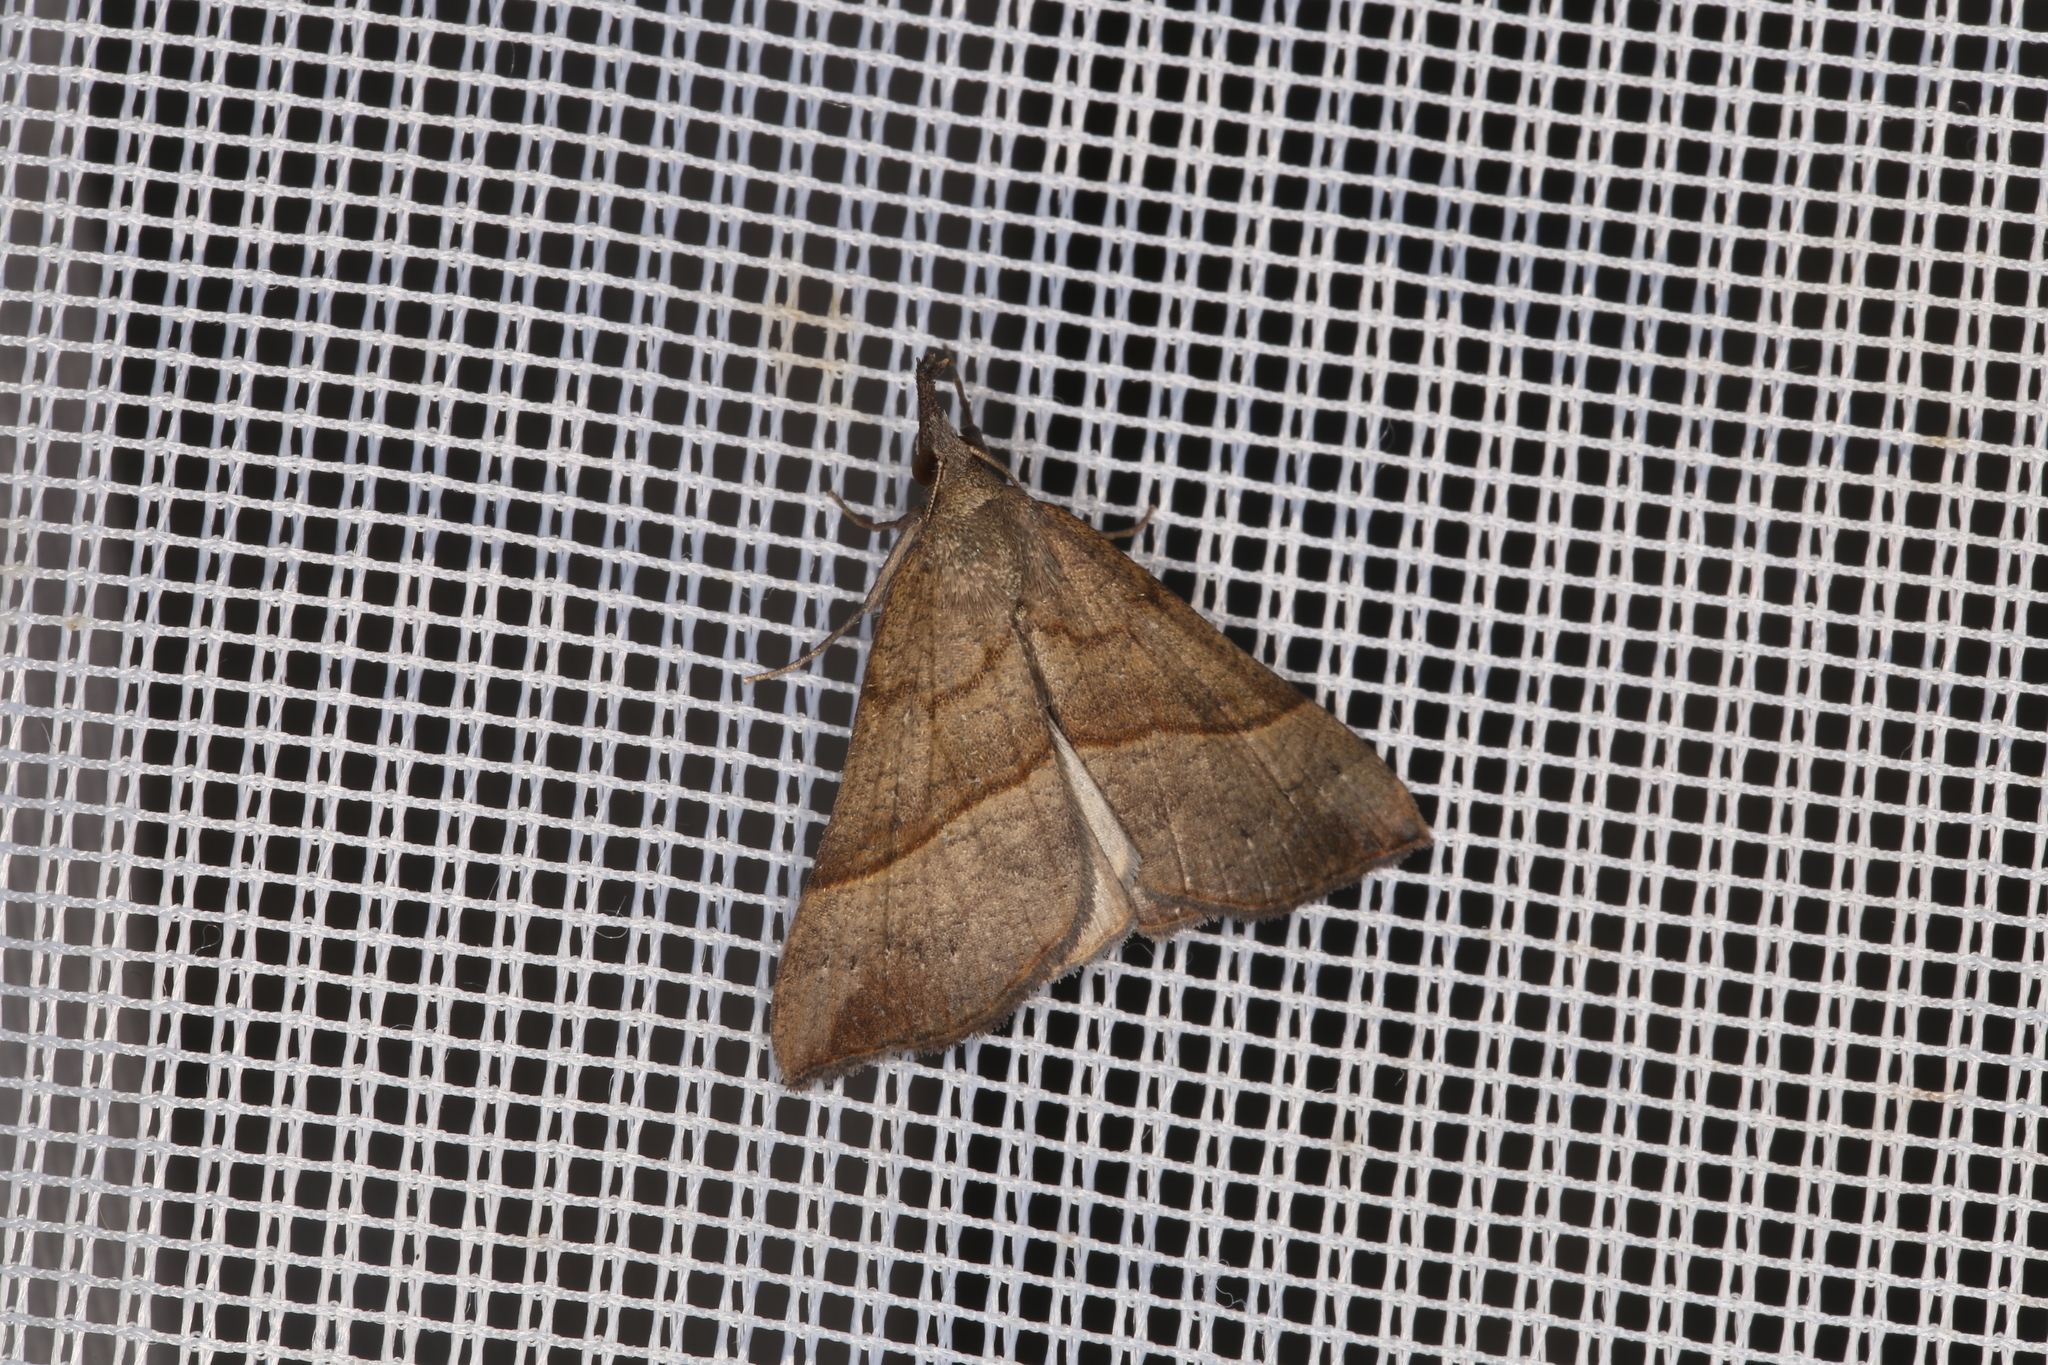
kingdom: Animalia
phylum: Arthropoda
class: Insecta
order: Lepidoptera
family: Erebidae
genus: Hypena
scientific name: Hypena proboscidalis
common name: Snout
